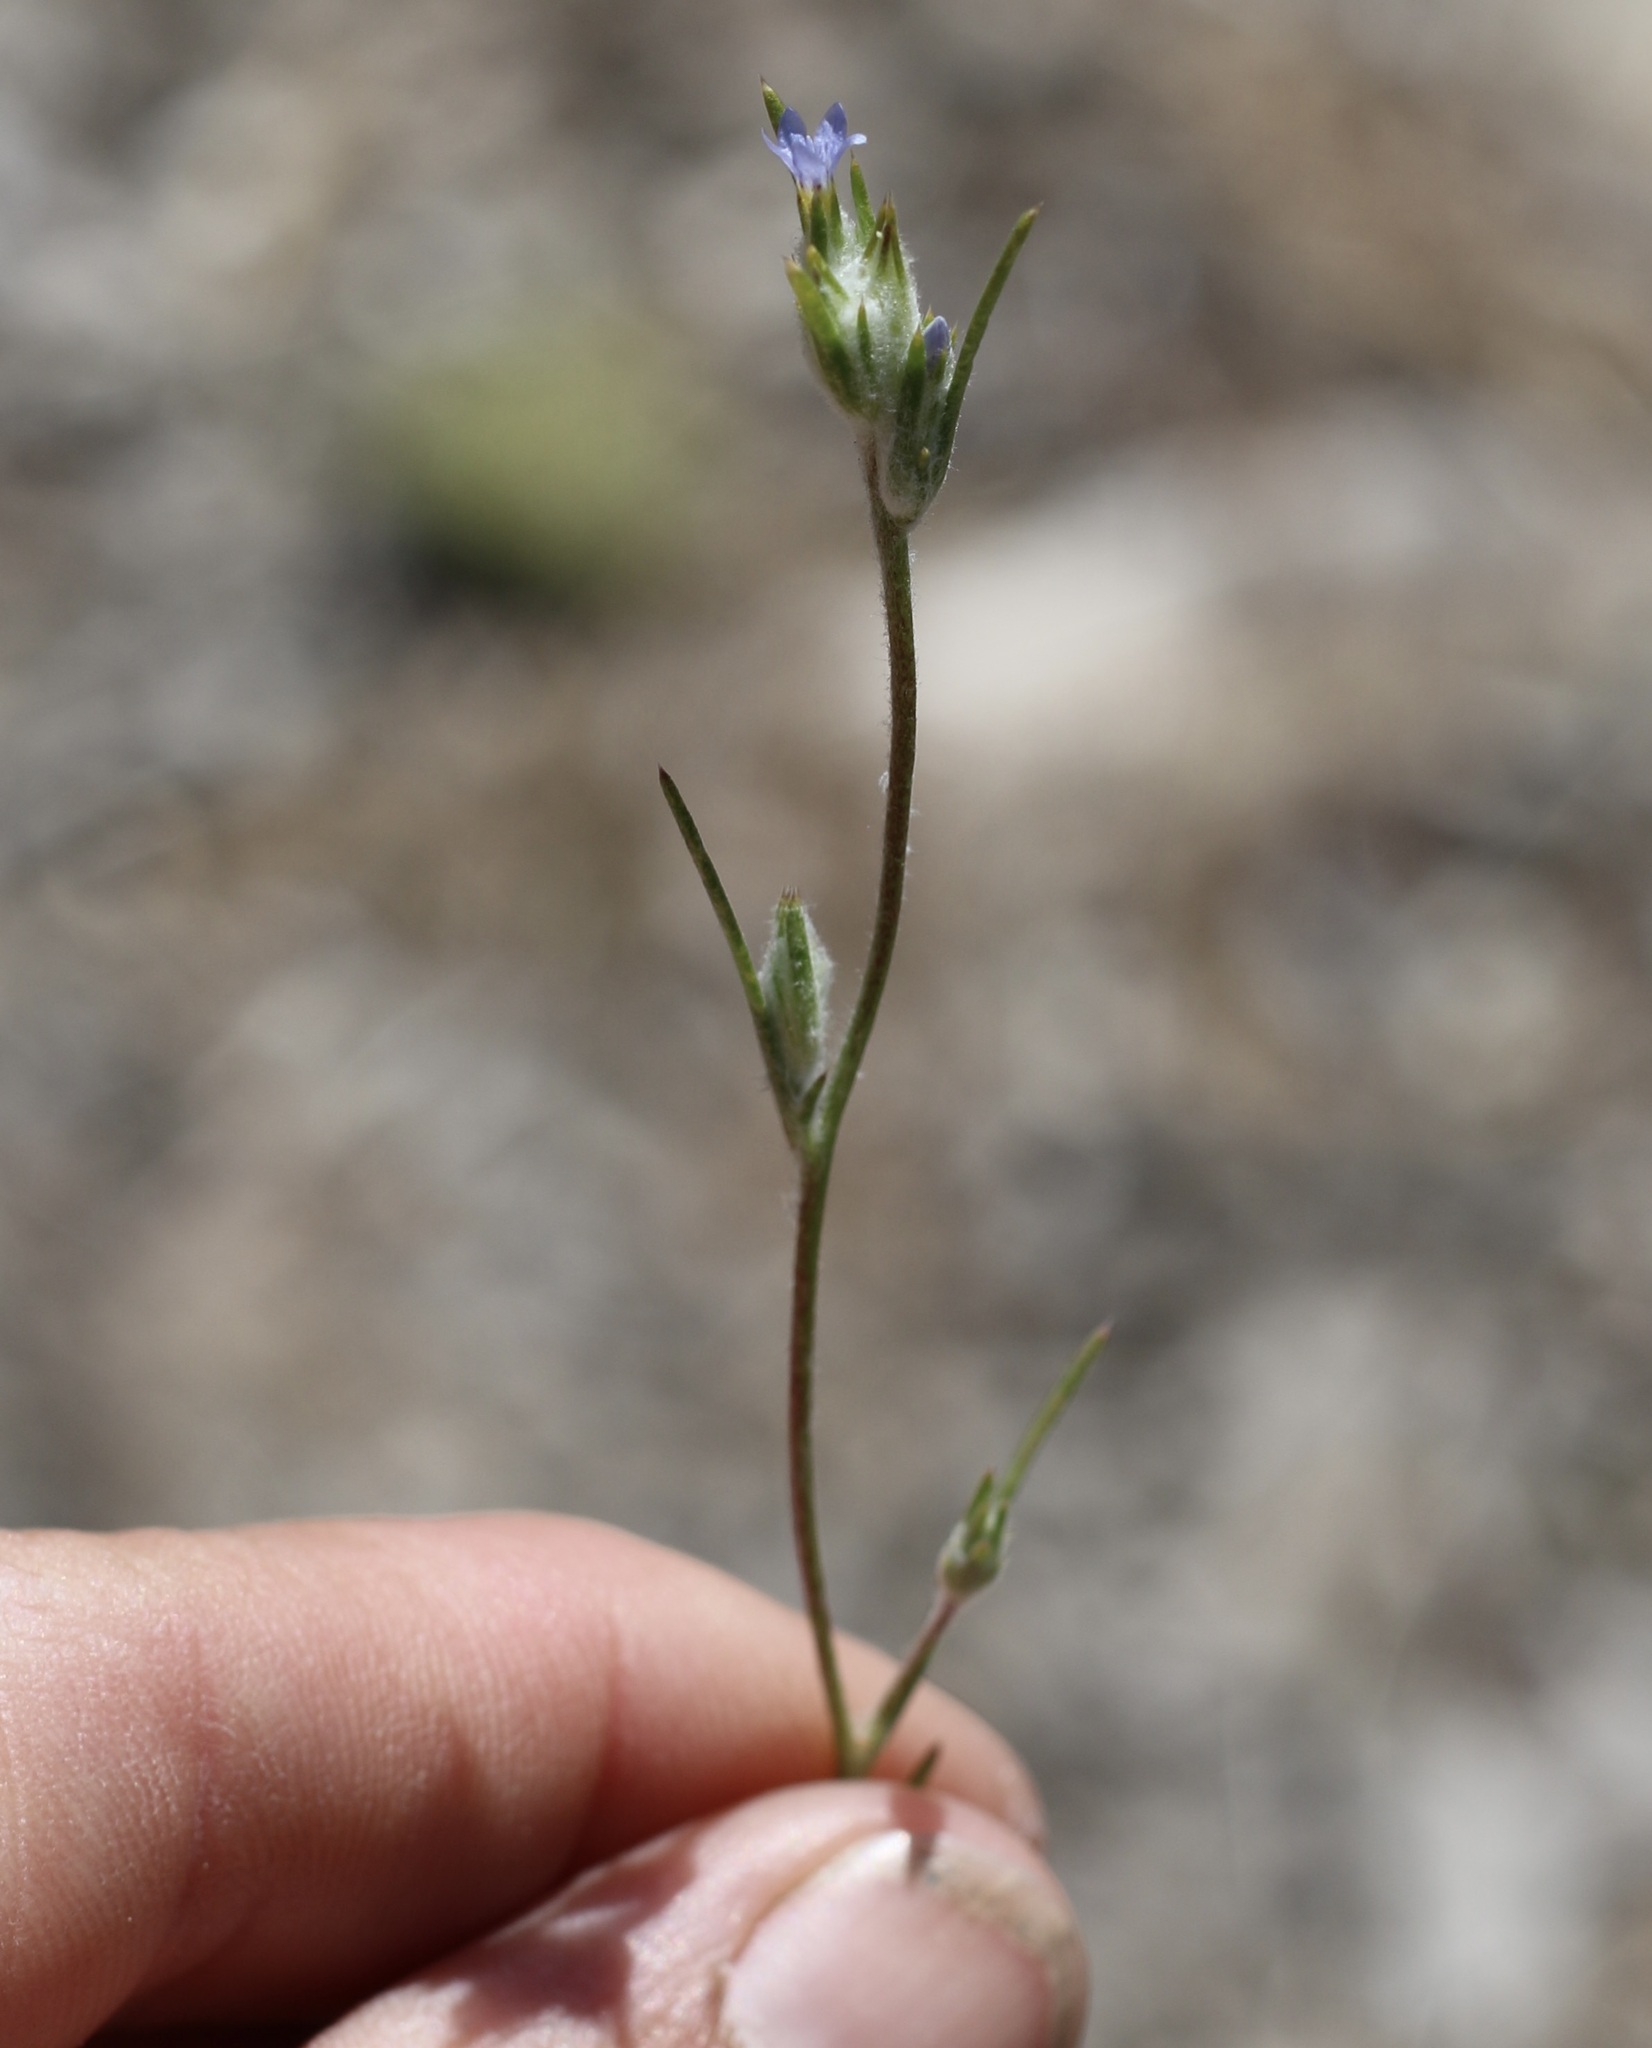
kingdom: Plantae
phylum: Tracheophyta
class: Magnoliopsida
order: Ericales
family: Polemoniaceae
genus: Eriastrum
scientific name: Eriastrum signatum
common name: Great basin woollystar
